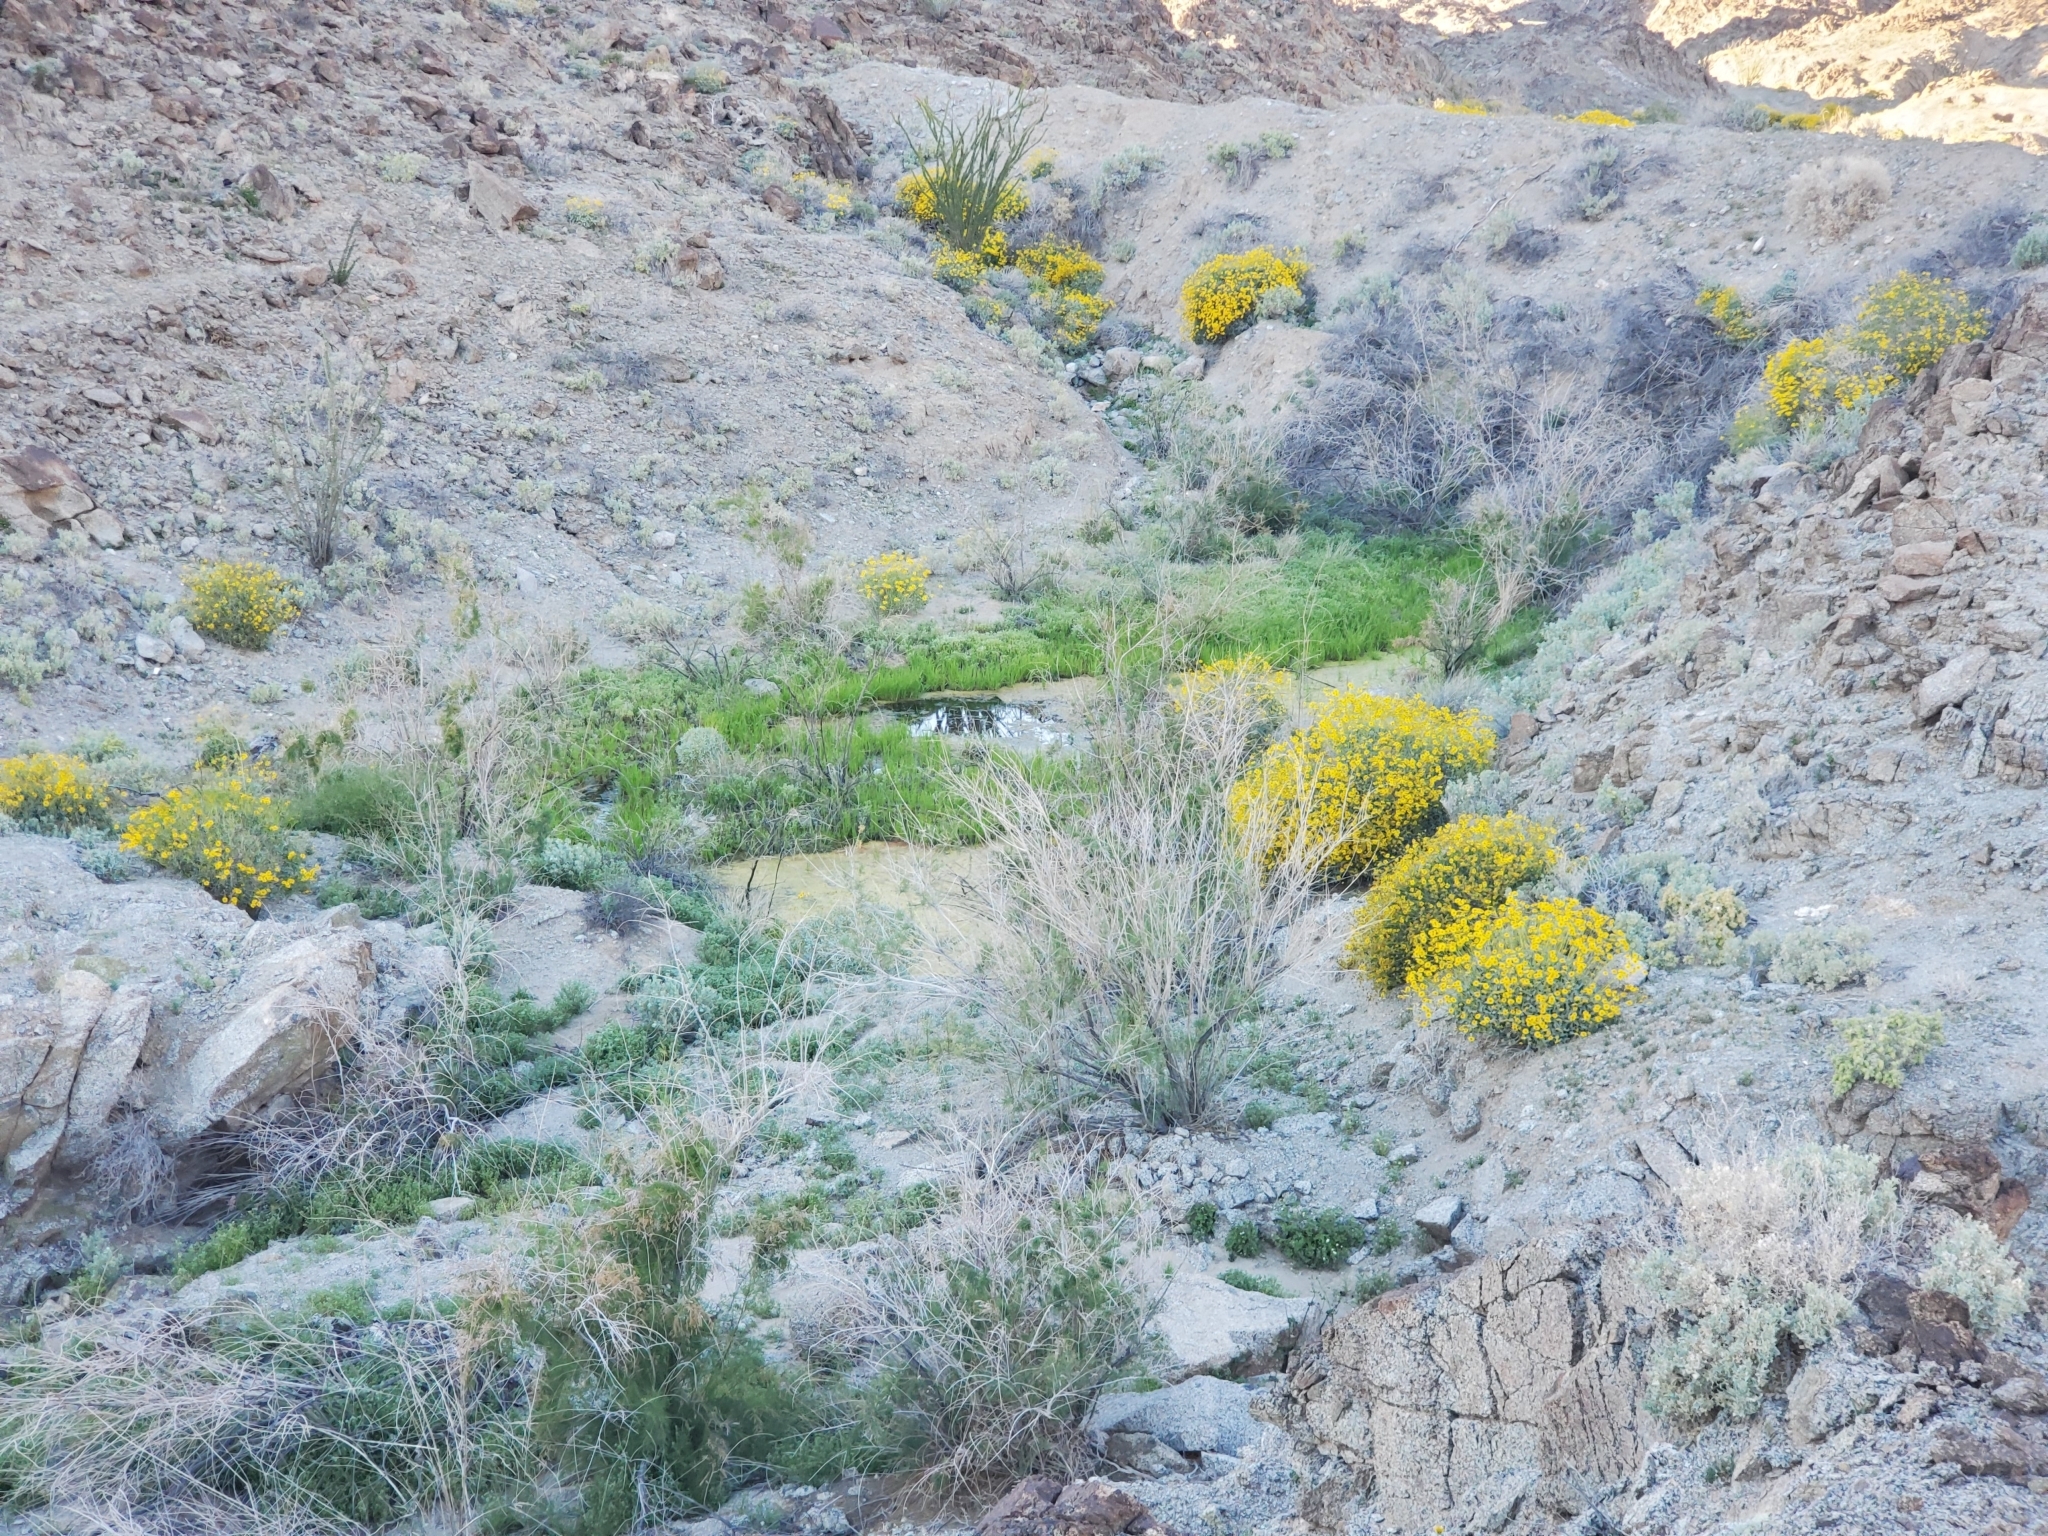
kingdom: Plantae
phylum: Tracheophyta
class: Magnoliopsida
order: Asterales
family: Asteraceae
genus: Encelia
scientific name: Encelia farinosa
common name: Brittlebush
